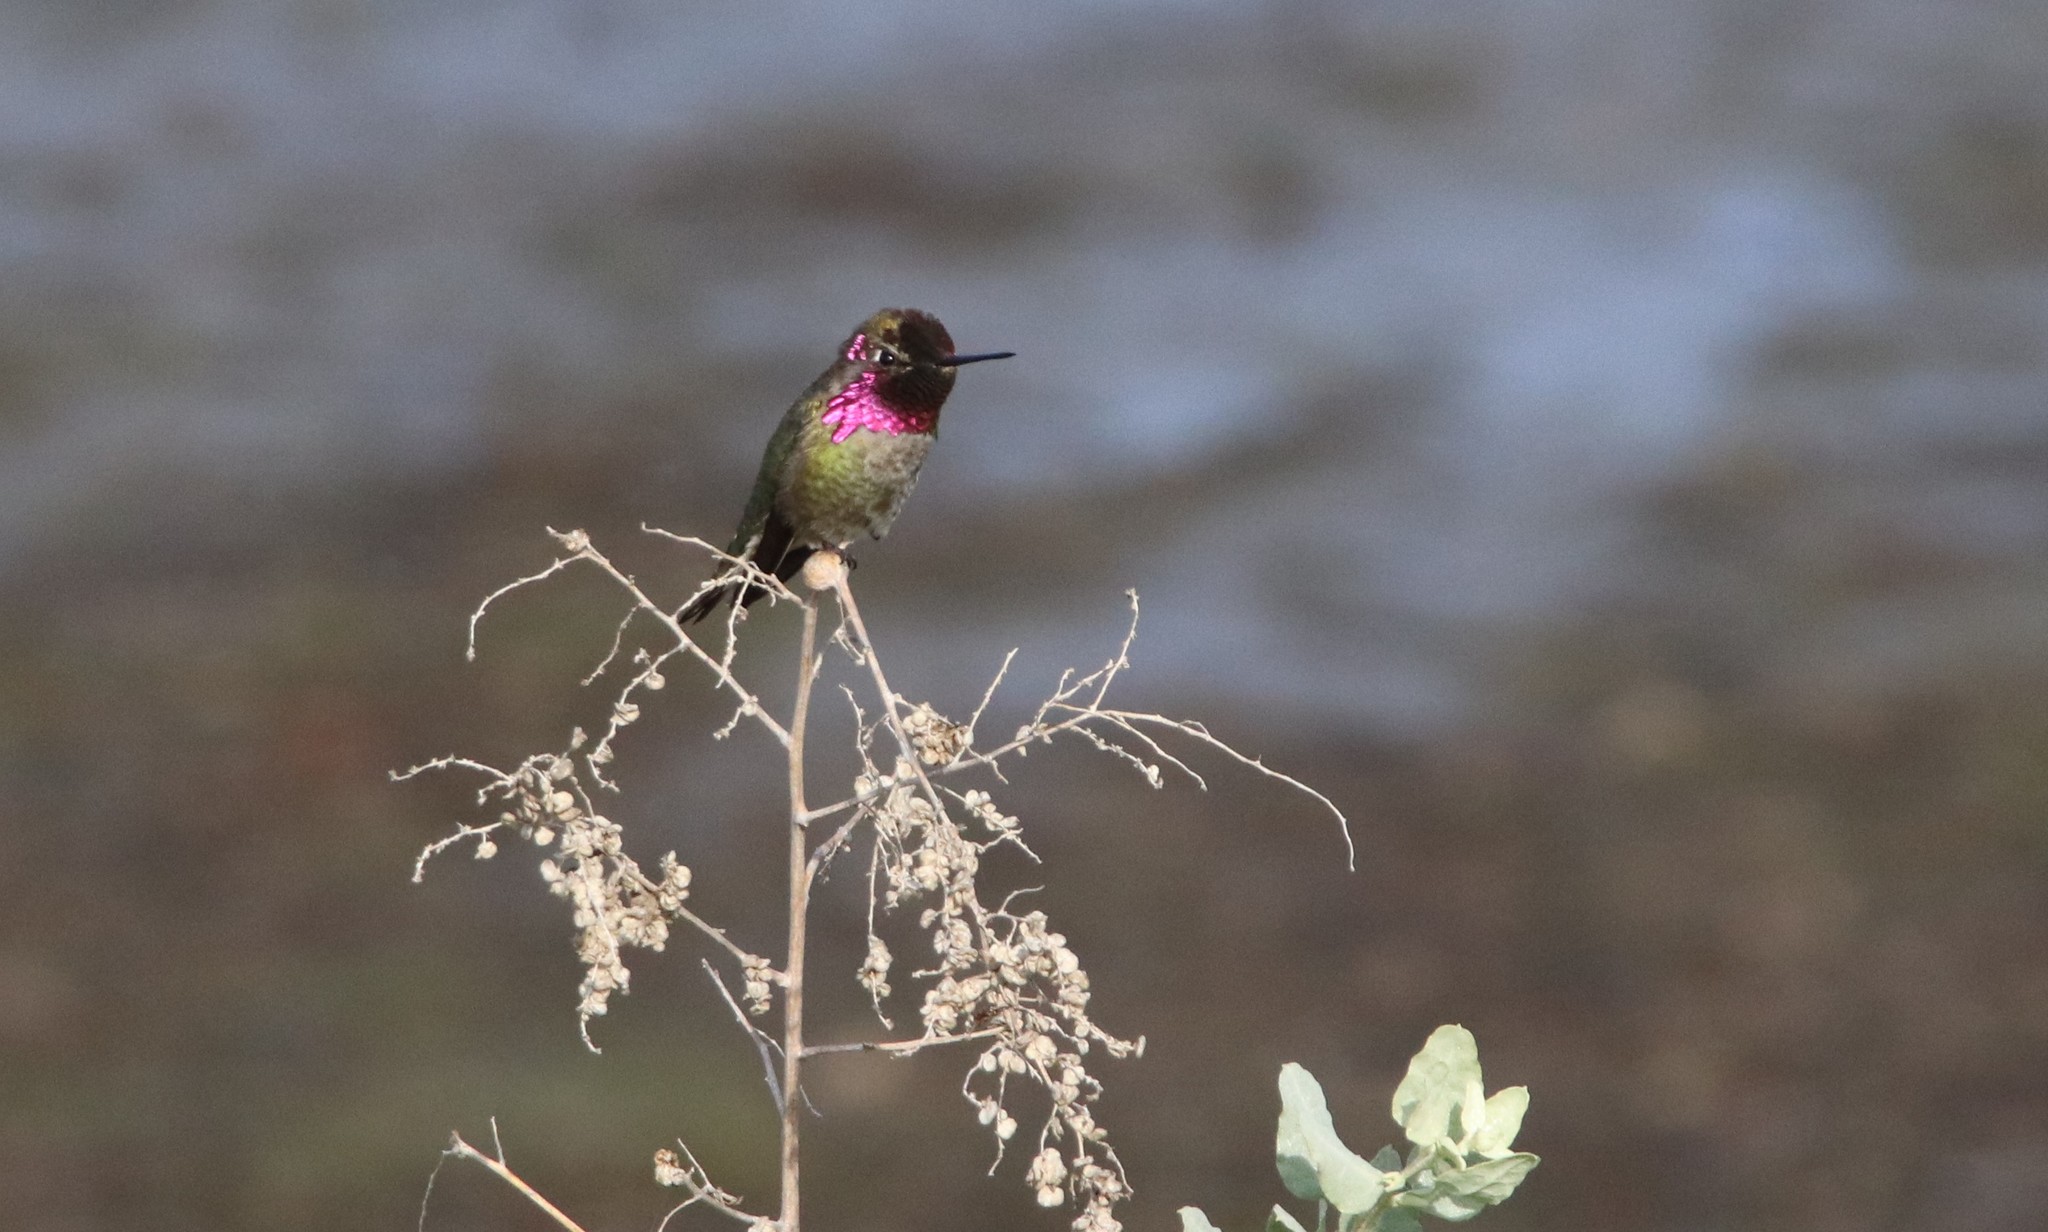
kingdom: Animalia
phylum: Chordata
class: Aves
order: Apodiformes
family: Trochilidae
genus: Calypte
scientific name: Calypte anna
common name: Anna's hummingbird
